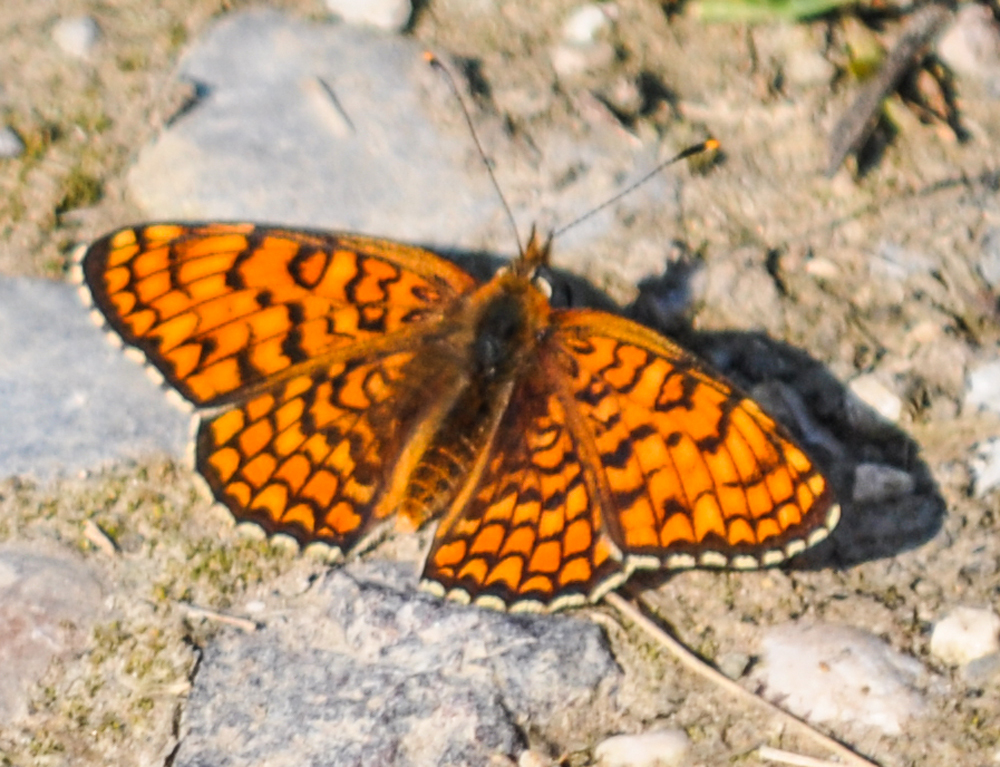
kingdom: Animalia
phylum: Arthropoda
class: Insecta
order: Lepidoptera
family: Nymphalidae
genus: Melitaea
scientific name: Melitaea phoebe
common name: Knapweed fritillary
